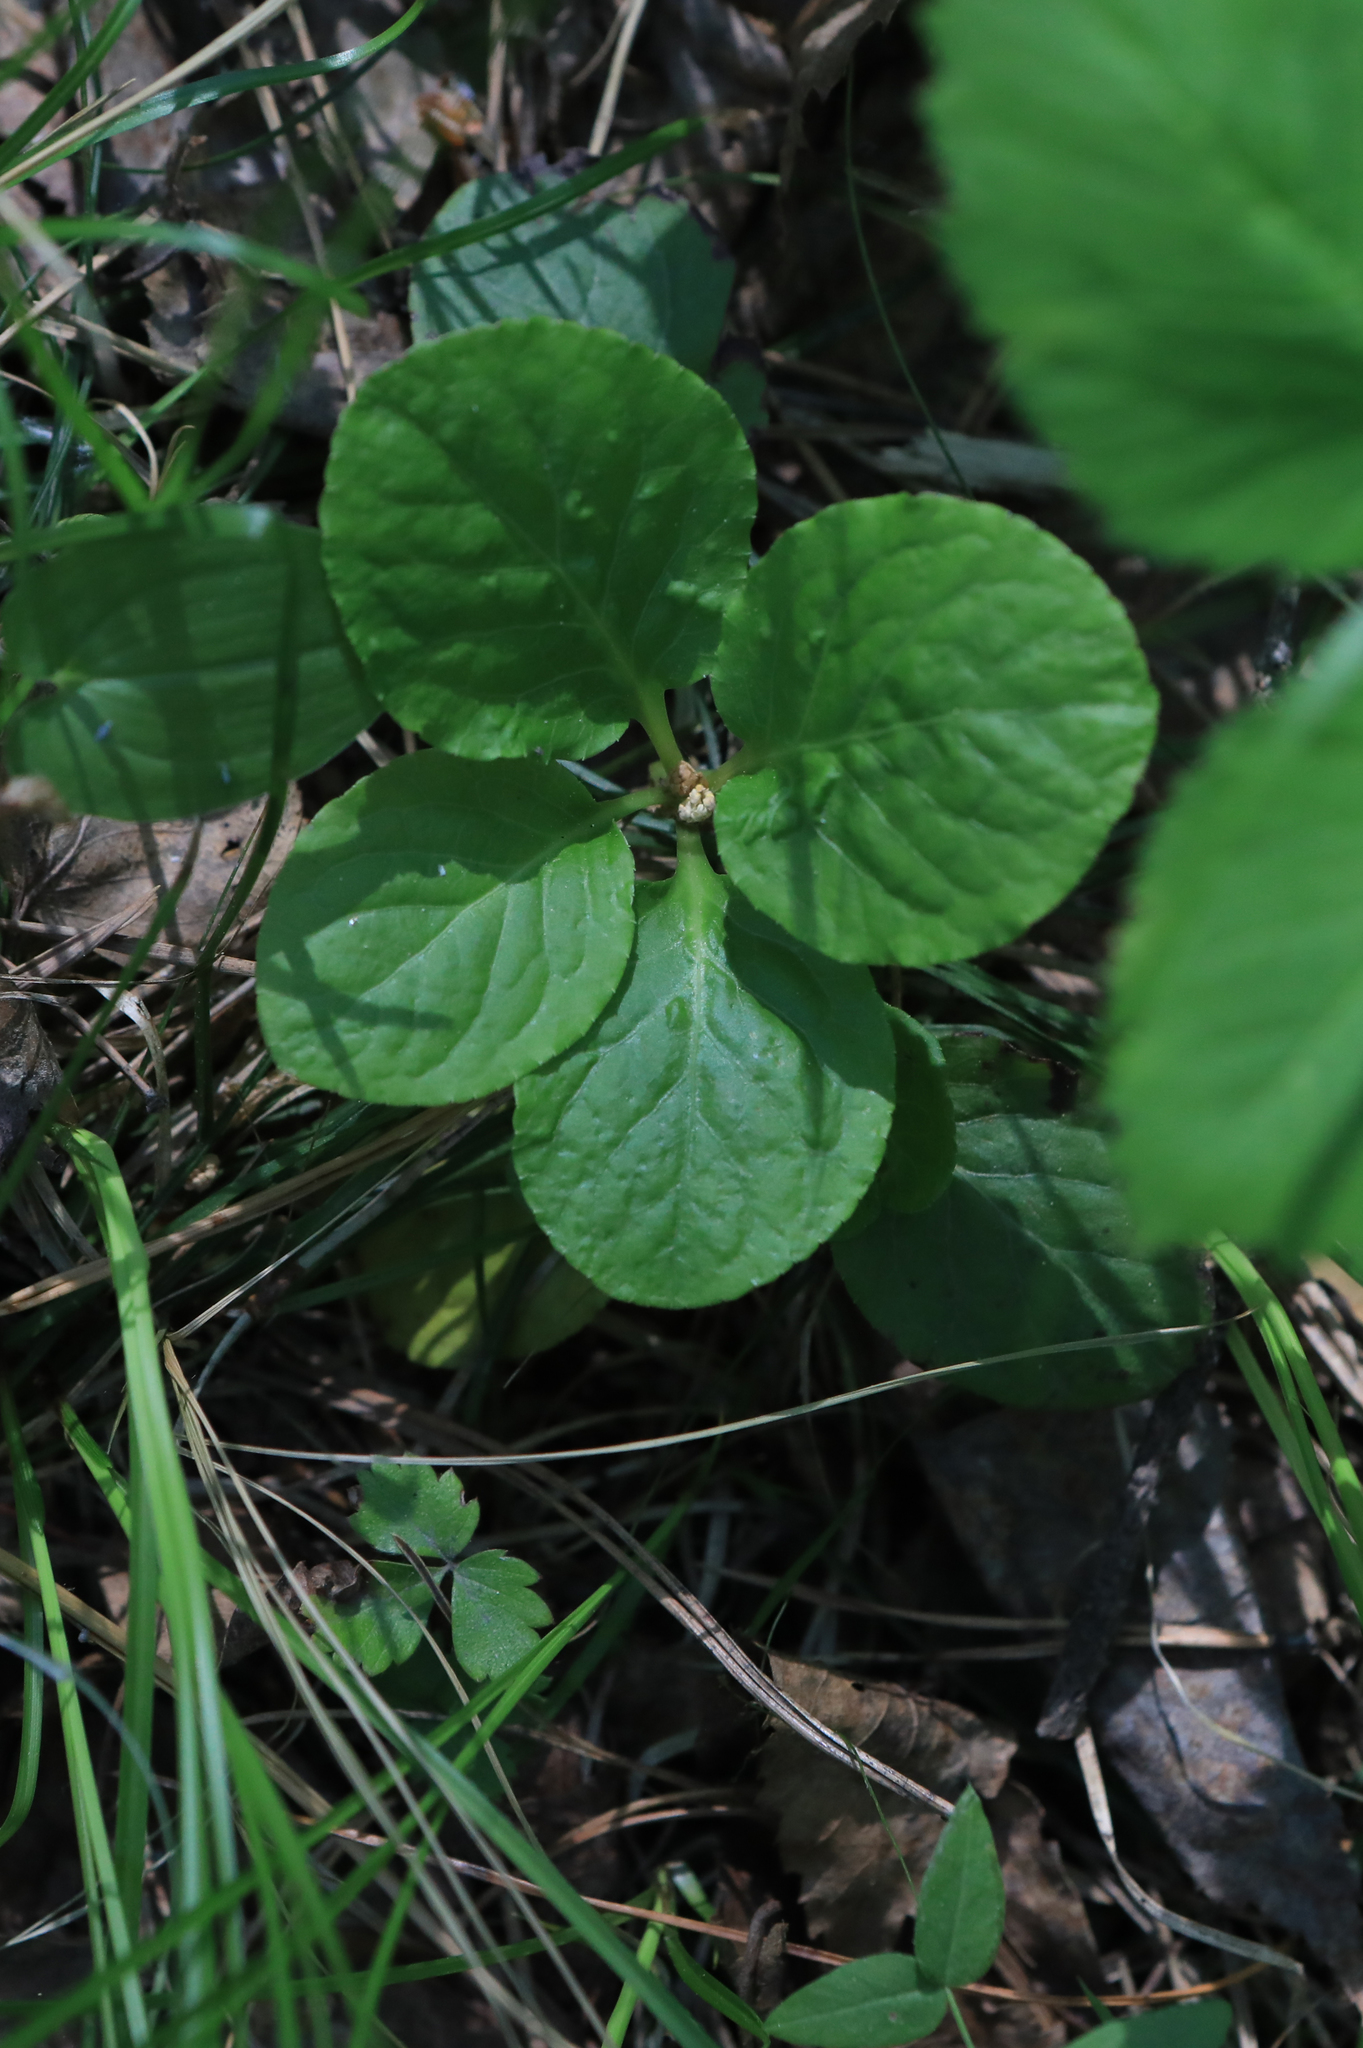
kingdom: Plantae
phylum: Tracheophyta
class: Magnoliopsida
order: Ericales
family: Ericaceae
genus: Pyrola
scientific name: Pyrola minor
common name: Common wintergreen
